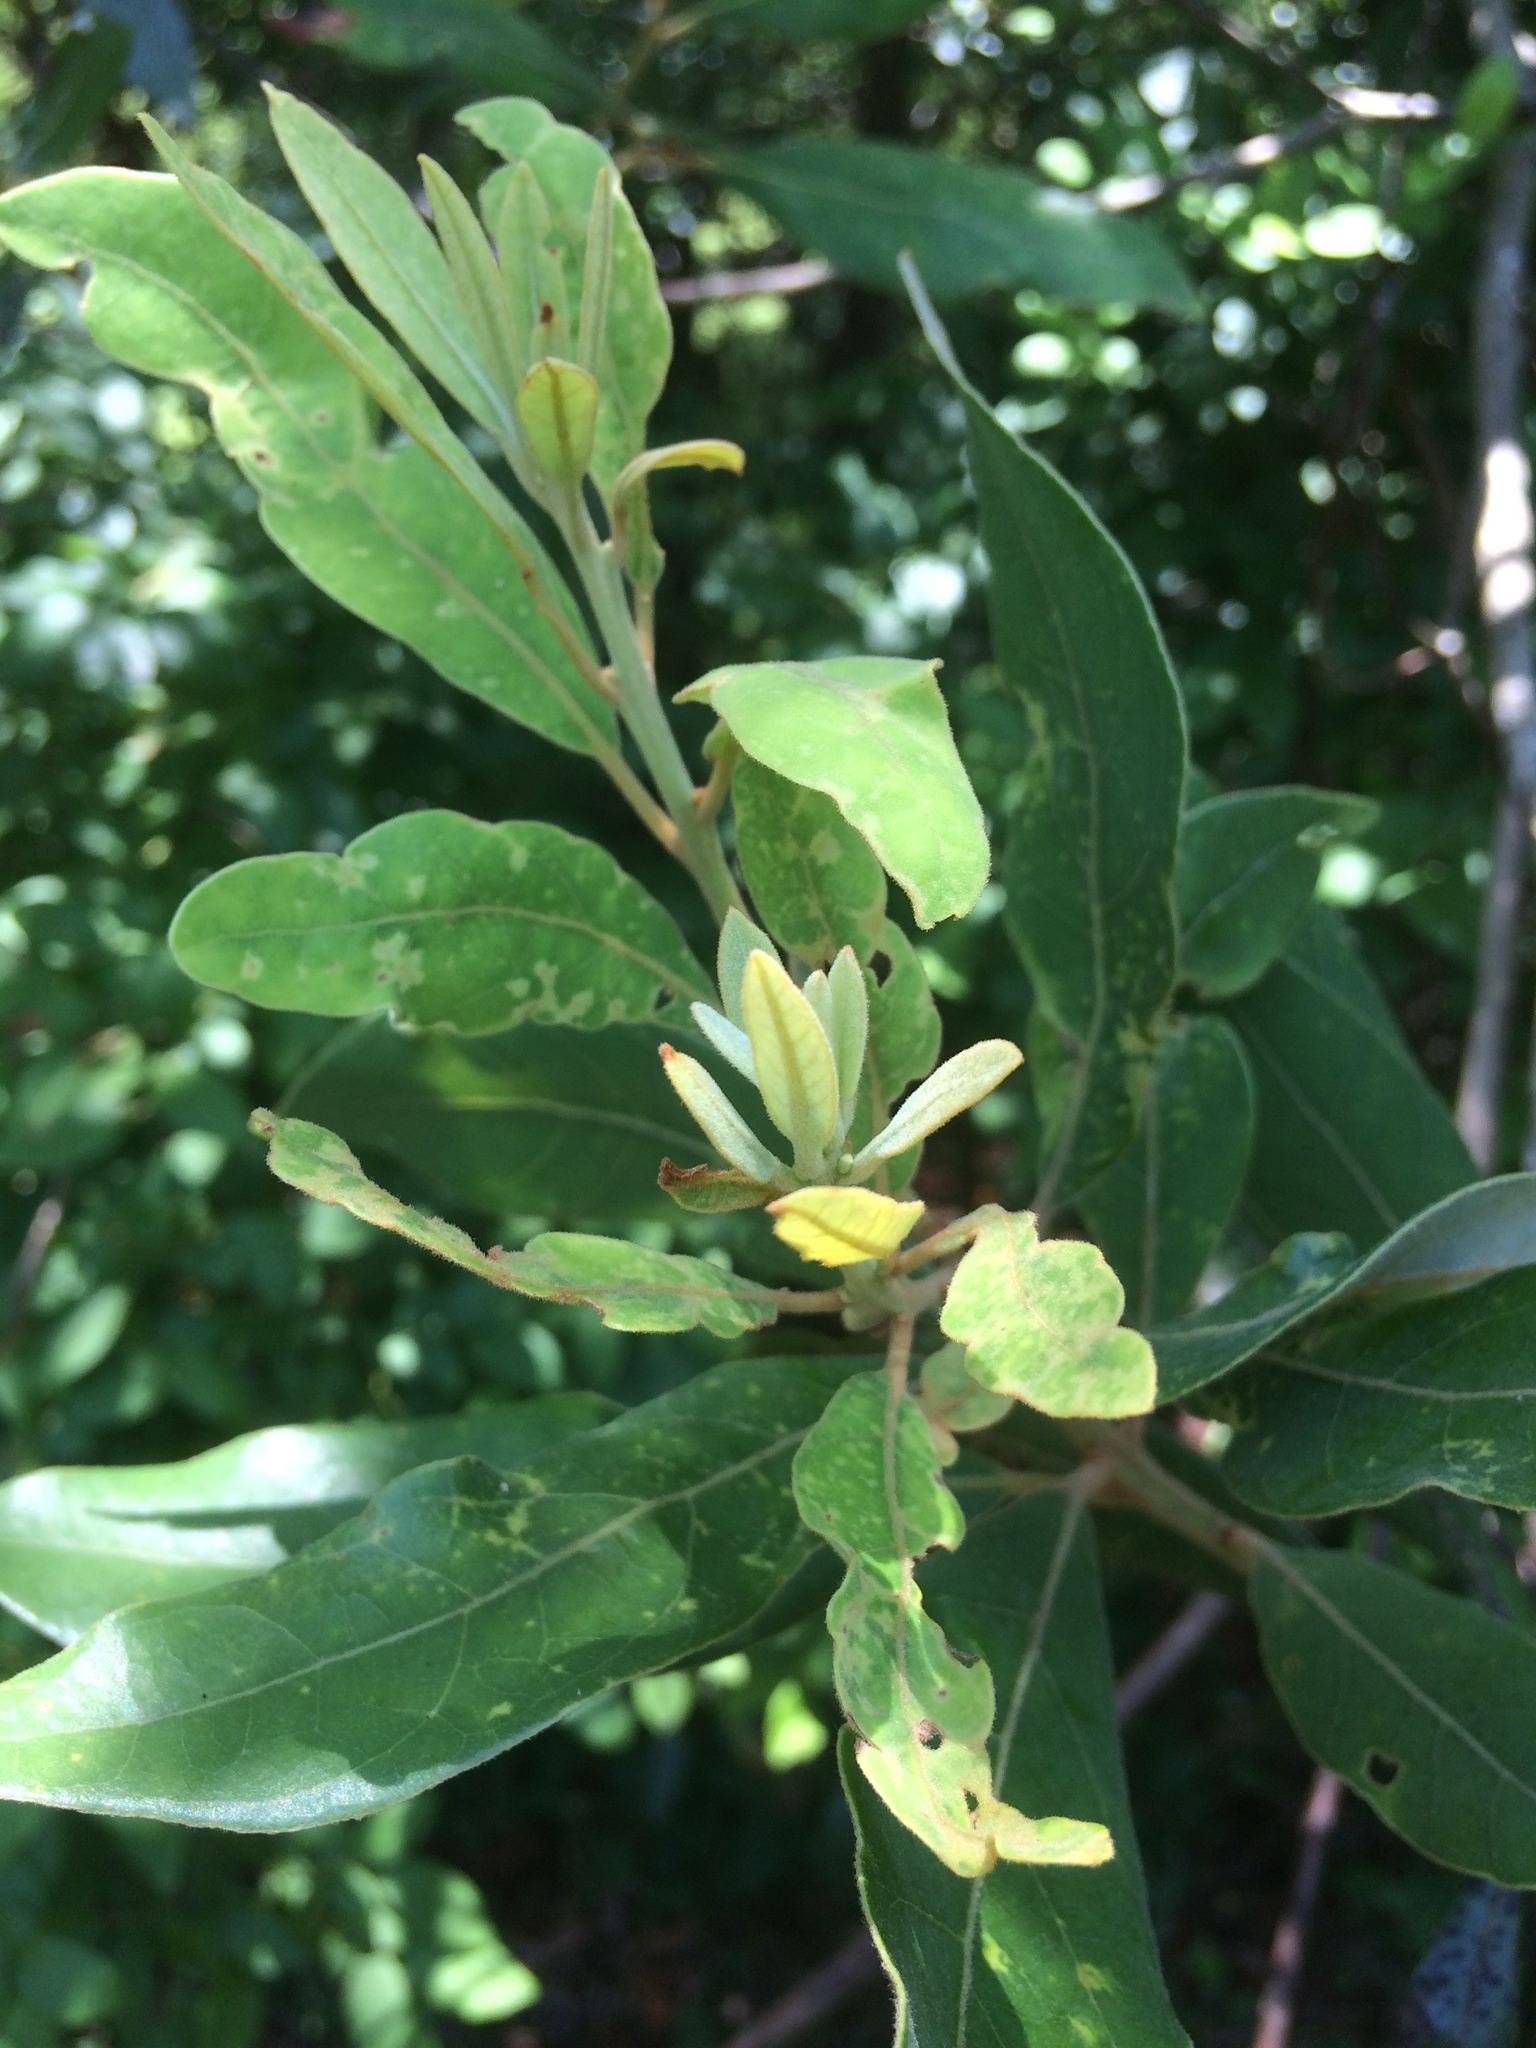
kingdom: Plantae
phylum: Tracheophyta
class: Magnoliopsida
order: Laurales
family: Lauraceae
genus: Persea
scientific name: Persea palustris
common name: Swampbay
